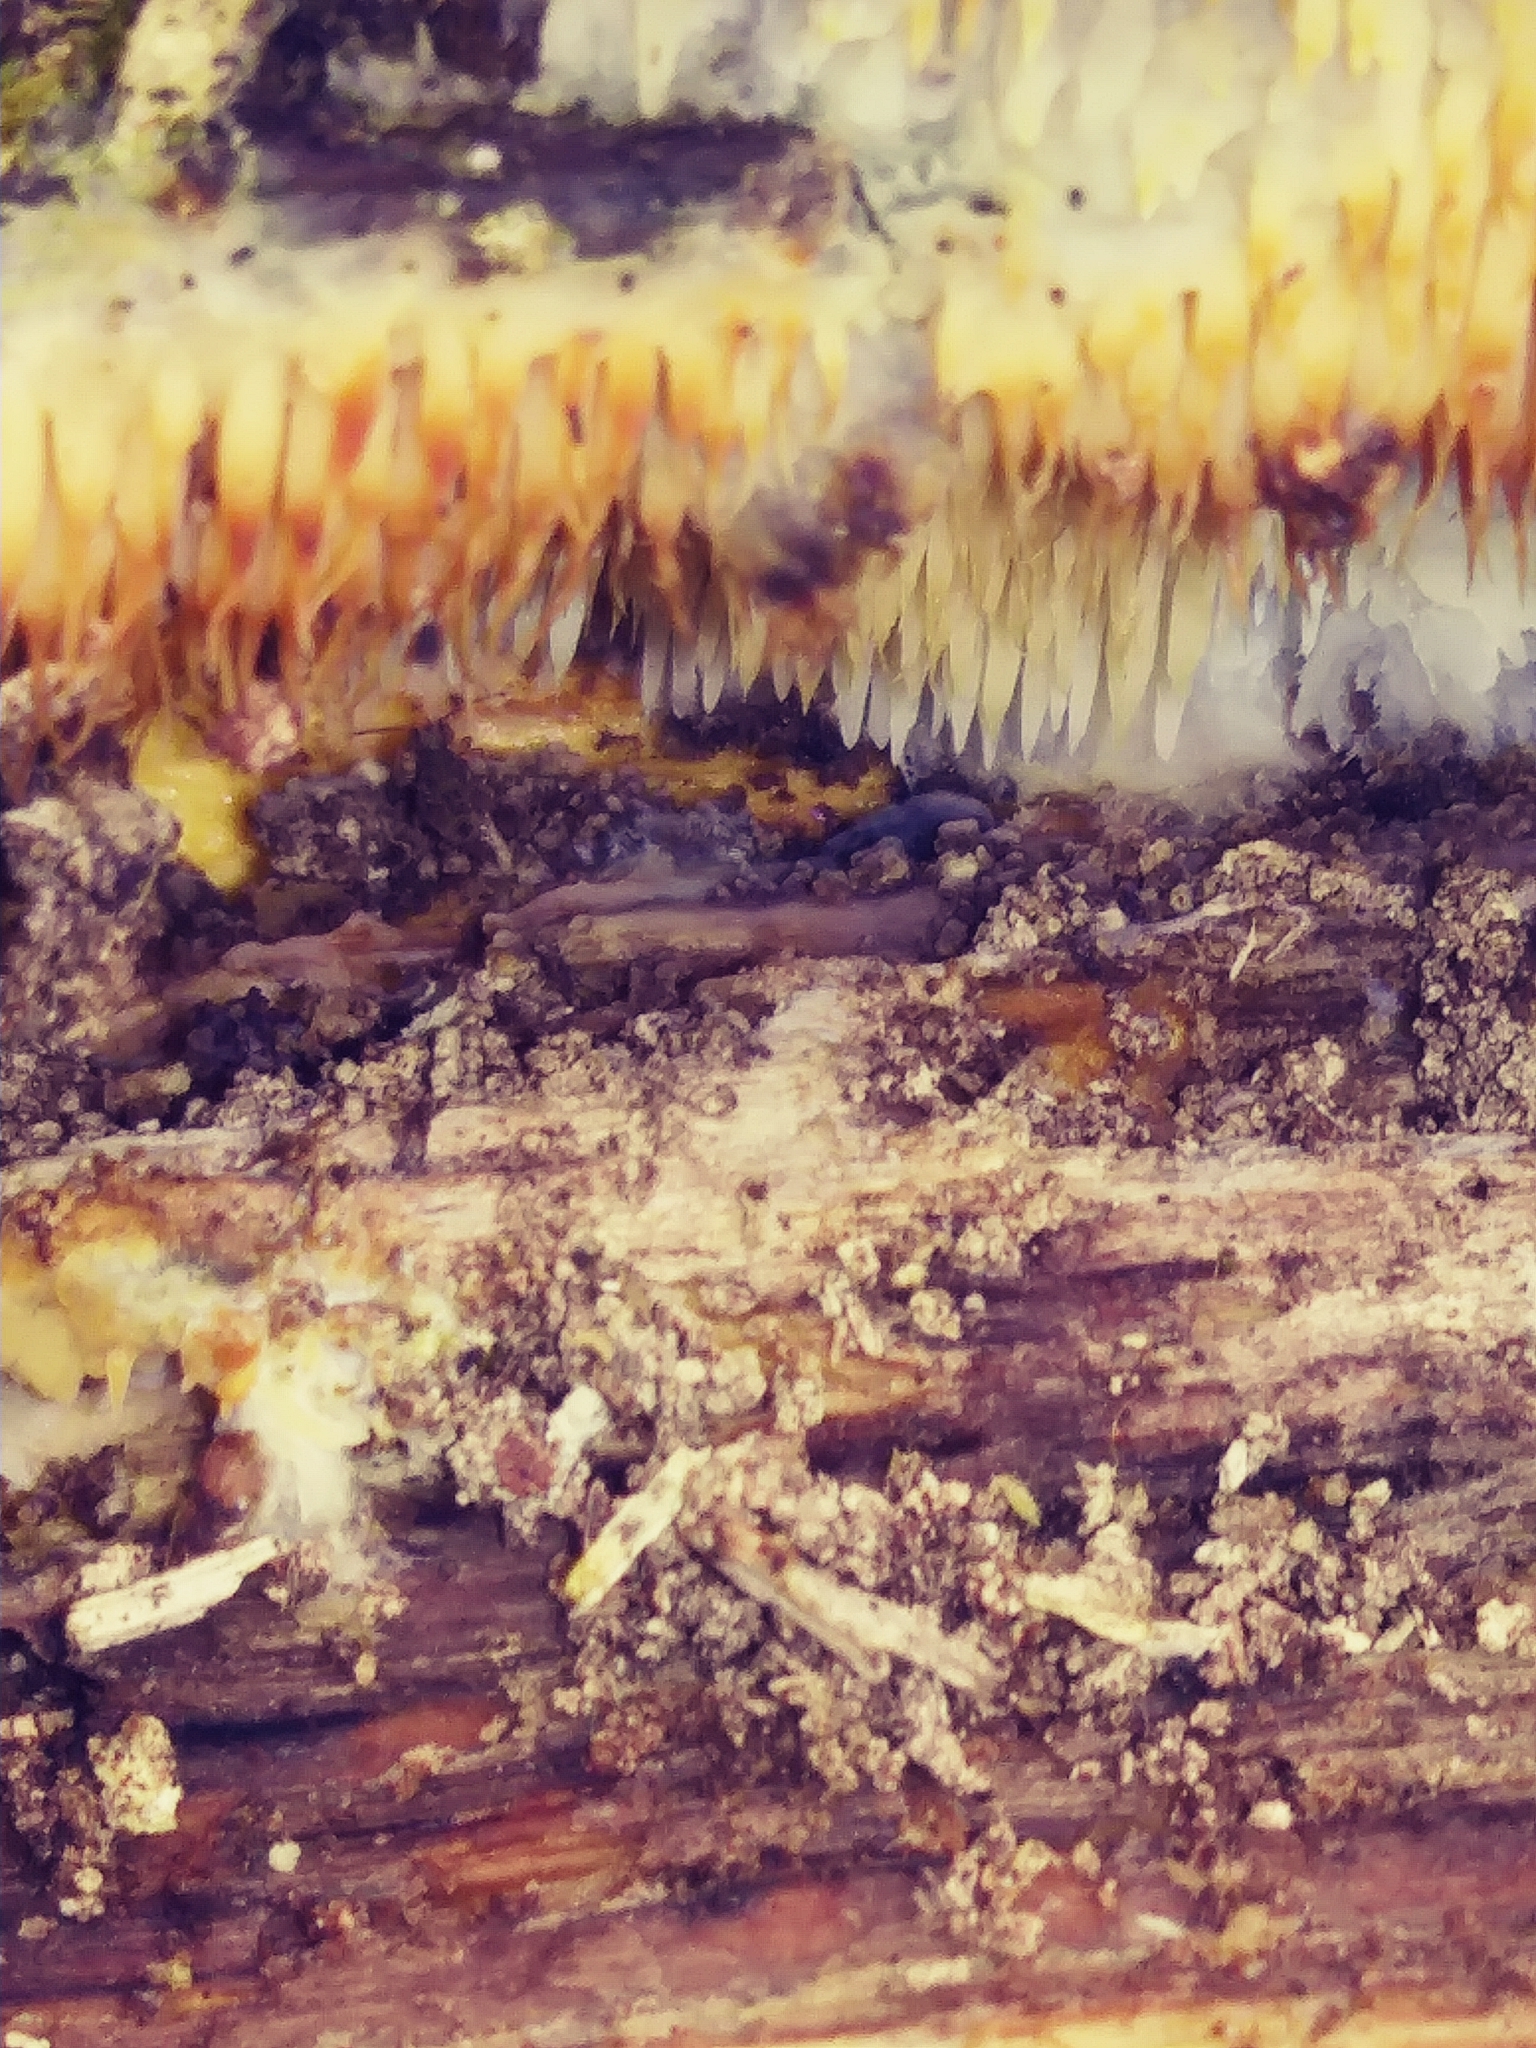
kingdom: Fungi
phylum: Basidiomycota
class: Agaricomycetes
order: Agaricales
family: Radulomycetaceae
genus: Radulomyces
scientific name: Radulomyces copelandii
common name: Asian beauty
